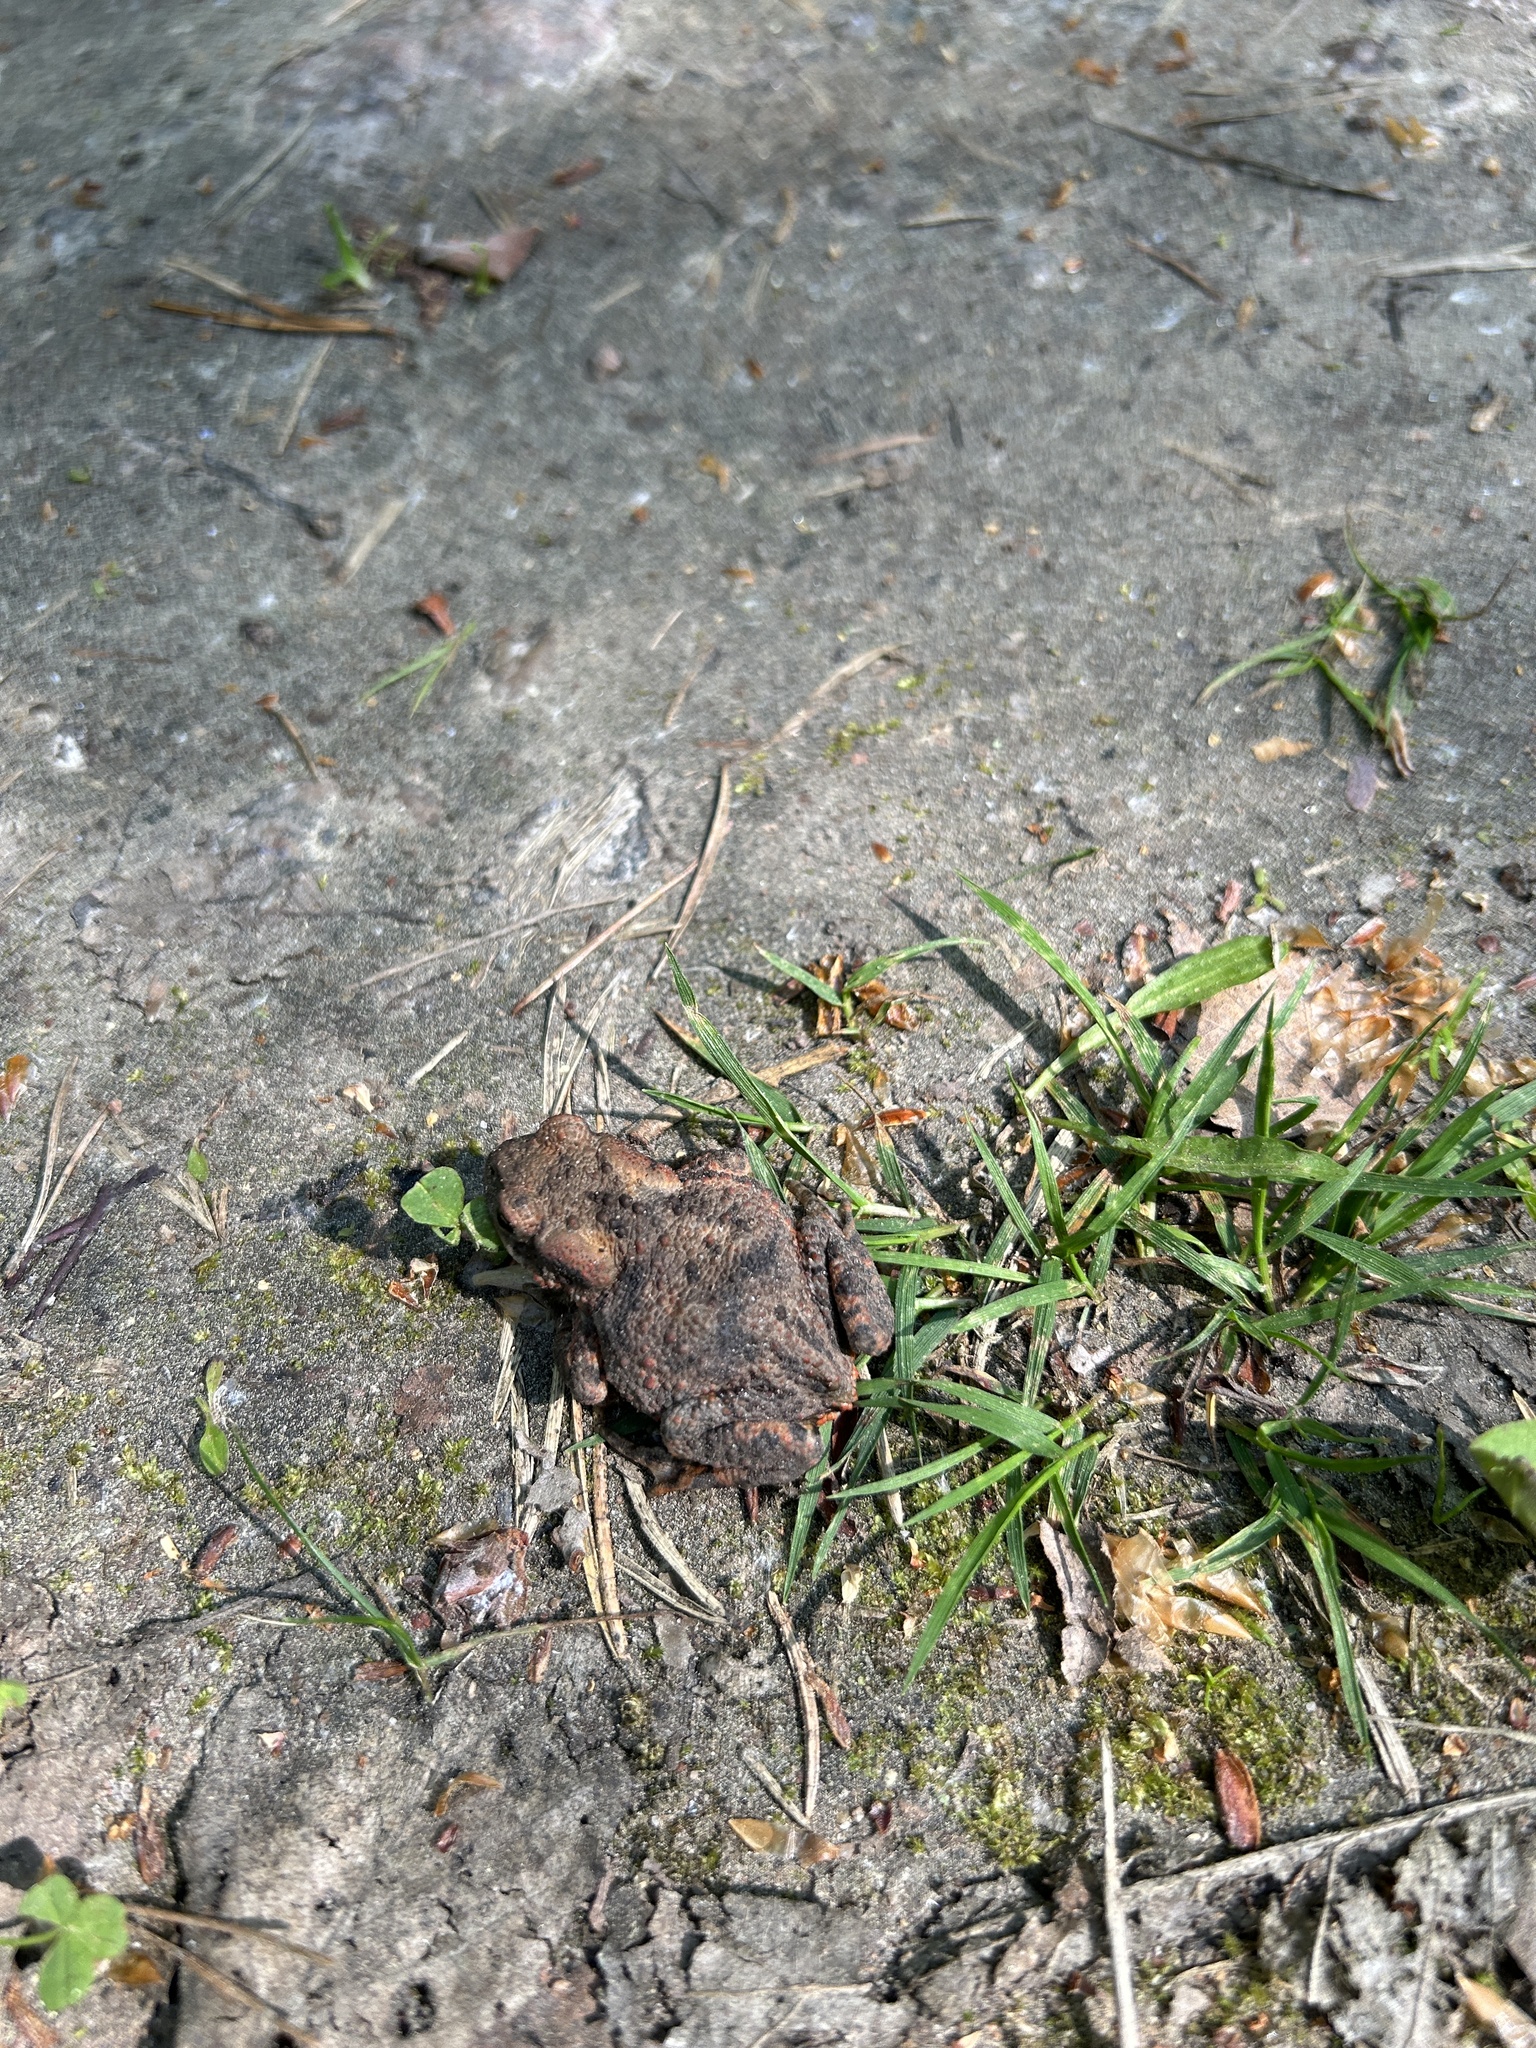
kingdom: Animalia
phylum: Chordata
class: Amphibia
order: Anura
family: Bufonidae
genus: Bufo
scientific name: Bufo bufo
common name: Common toad
